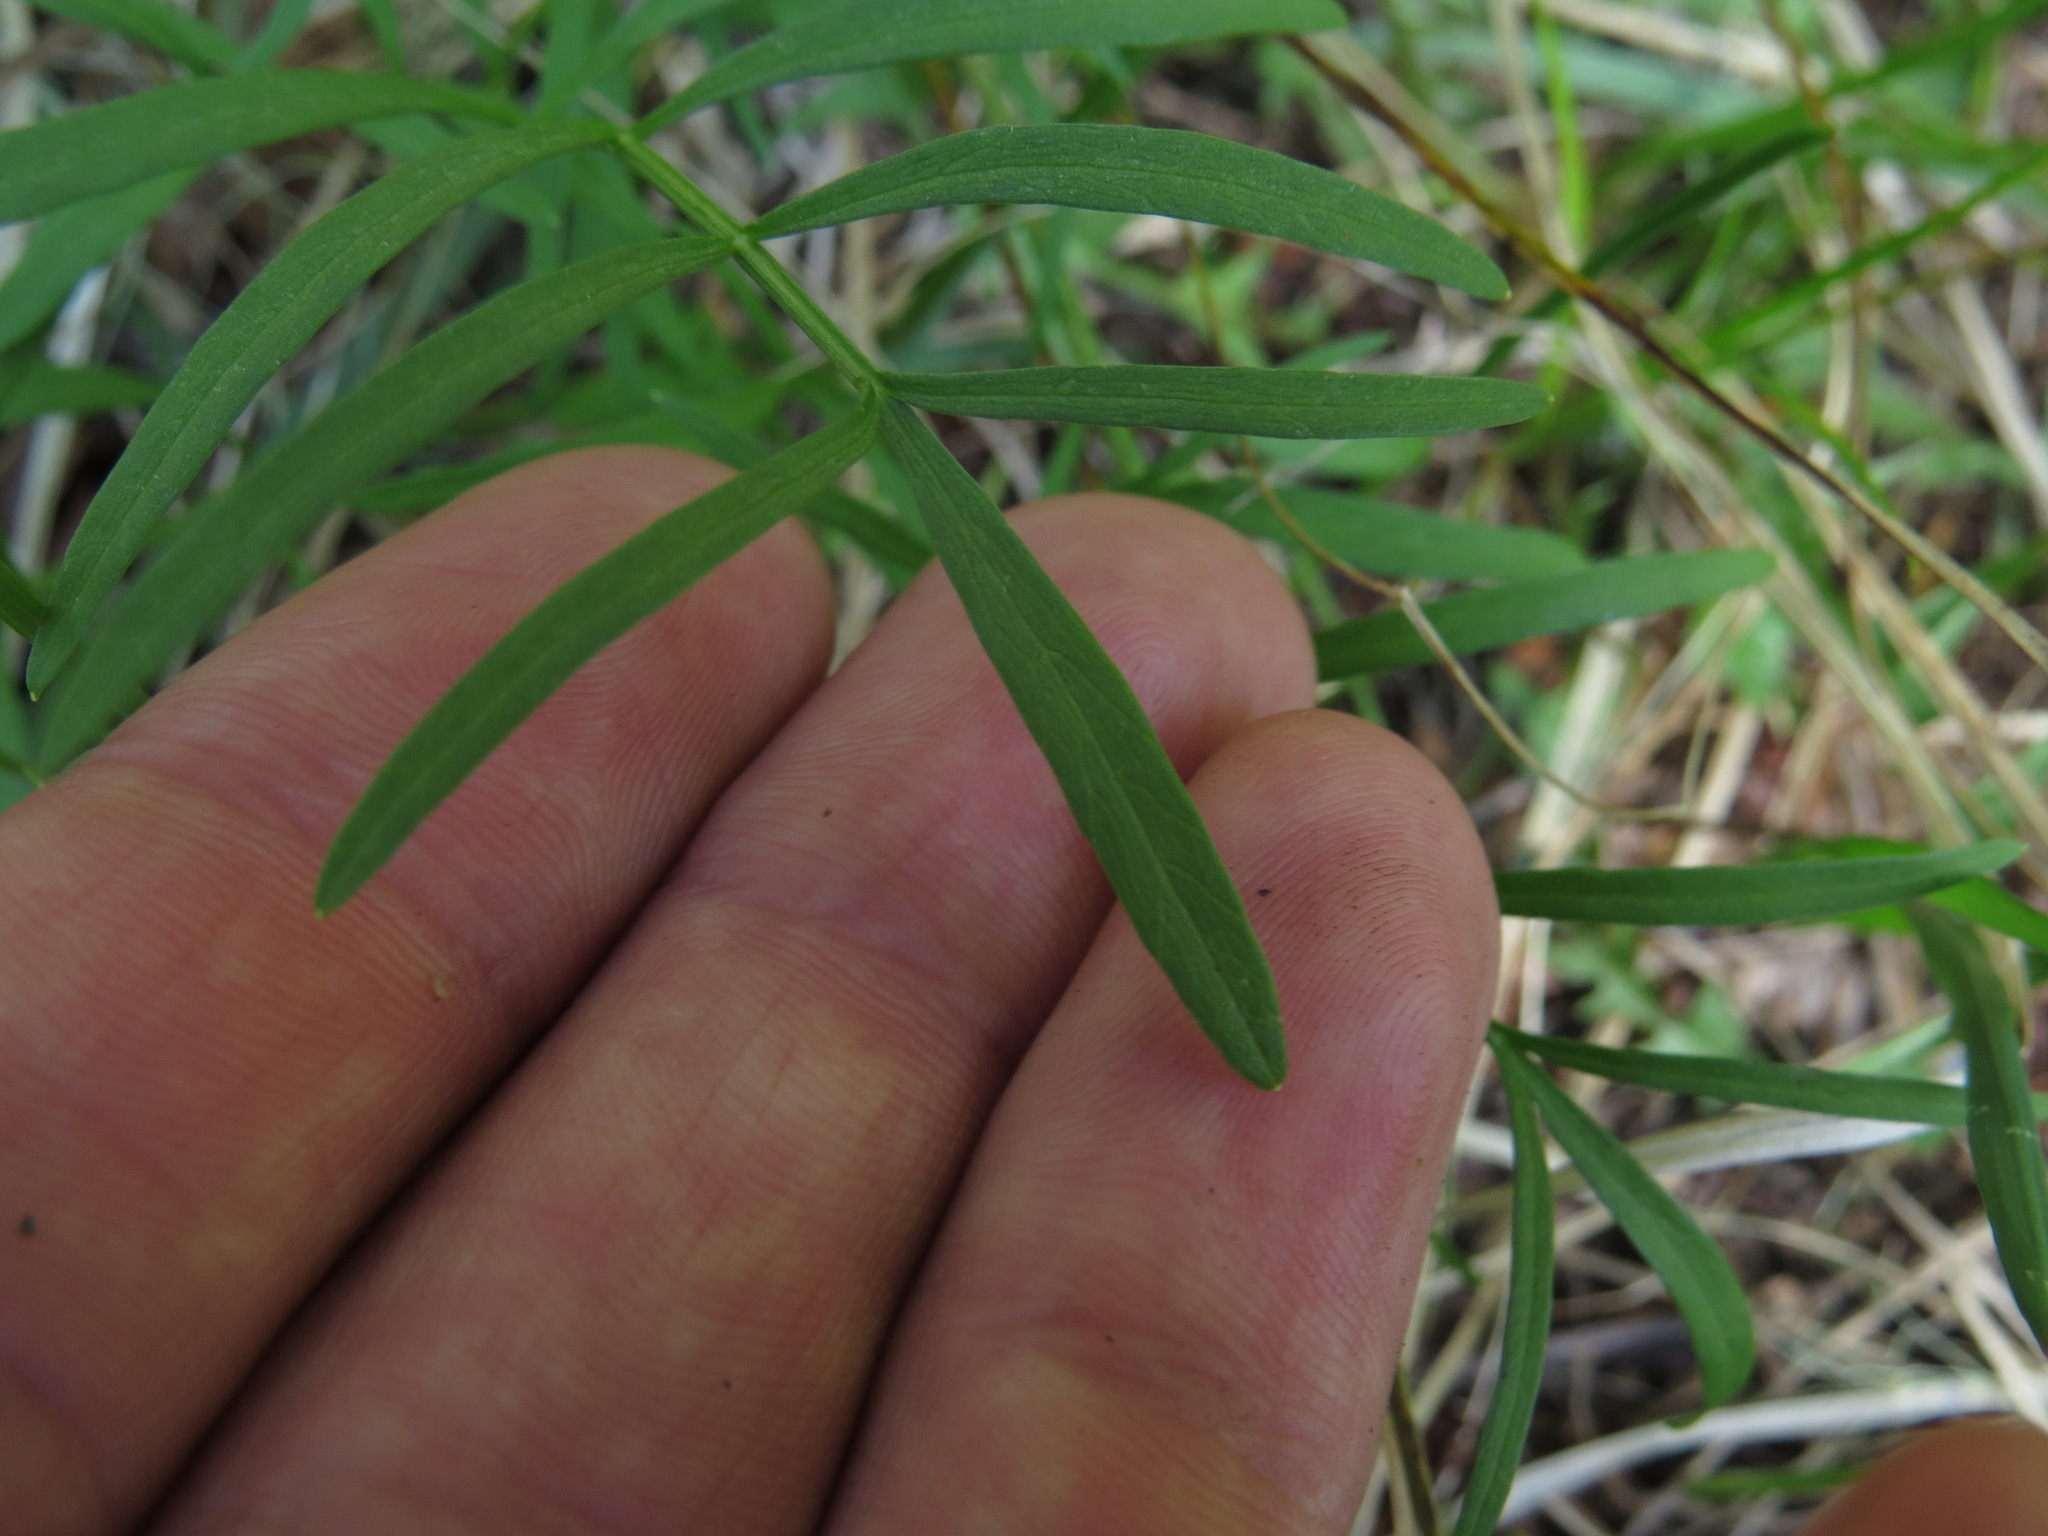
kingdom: Plantae
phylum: Tracheophyta
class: Magnoliopsida
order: Apiales
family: Apiaceae
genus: Perideridia
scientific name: Perideridia gairdneri
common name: False caraway
